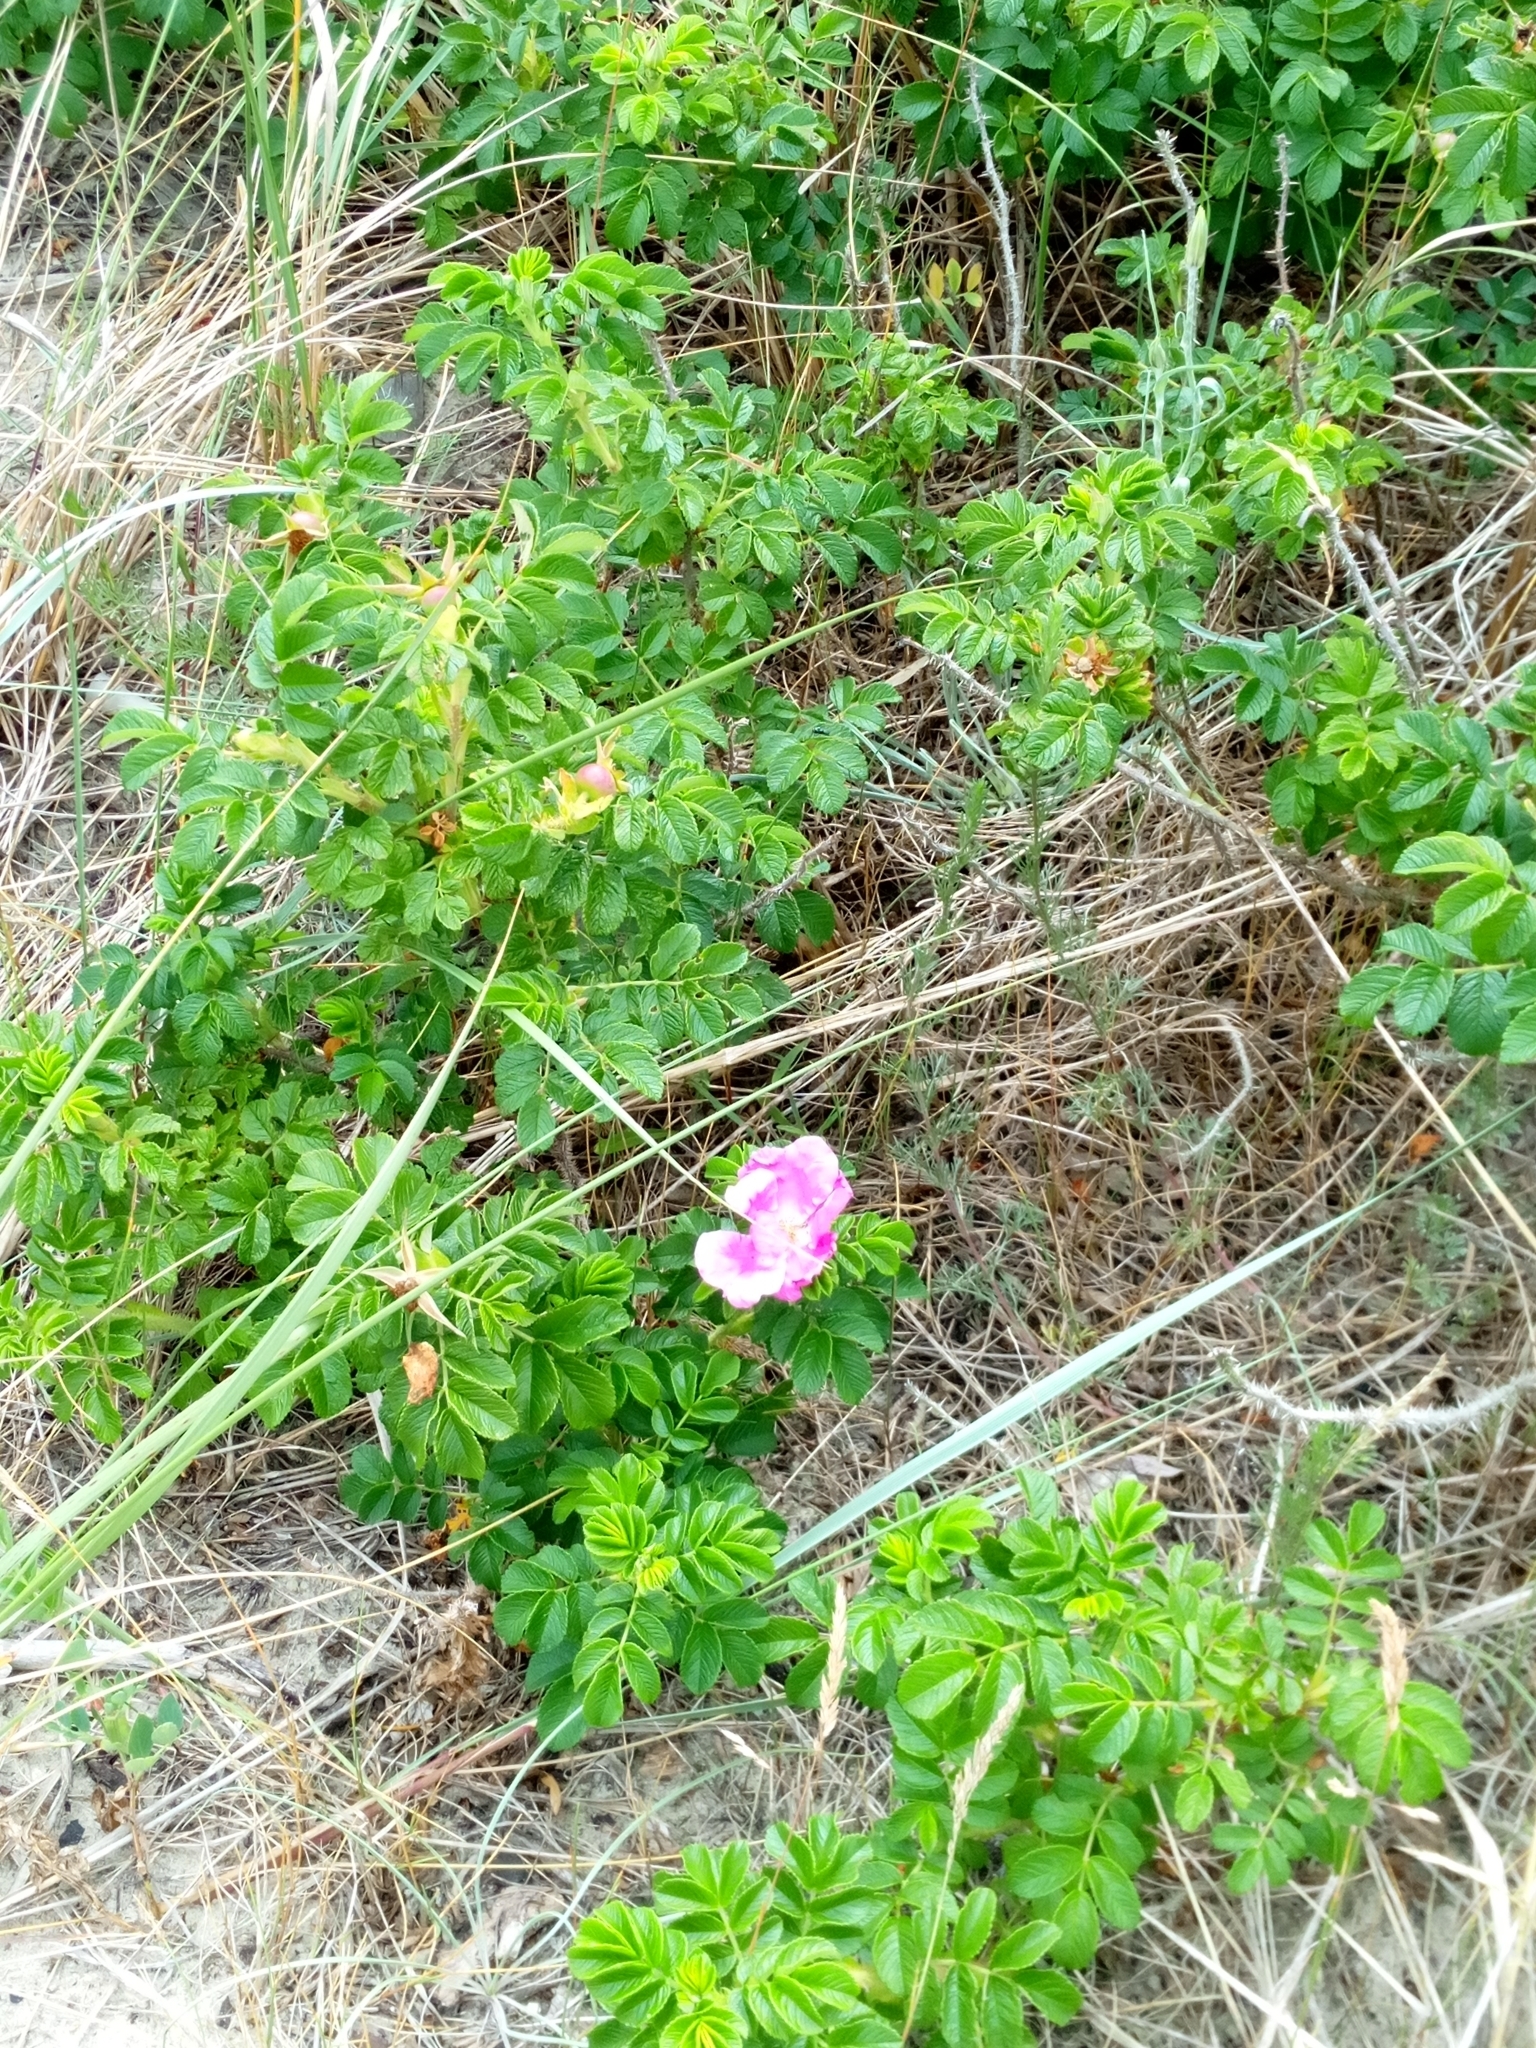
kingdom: Plantae
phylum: Tracheophyta
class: Magnoliopsida
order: Rosales
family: Rosaceae
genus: Rosa
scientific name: Rosa rugosa
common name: Japanese rose
